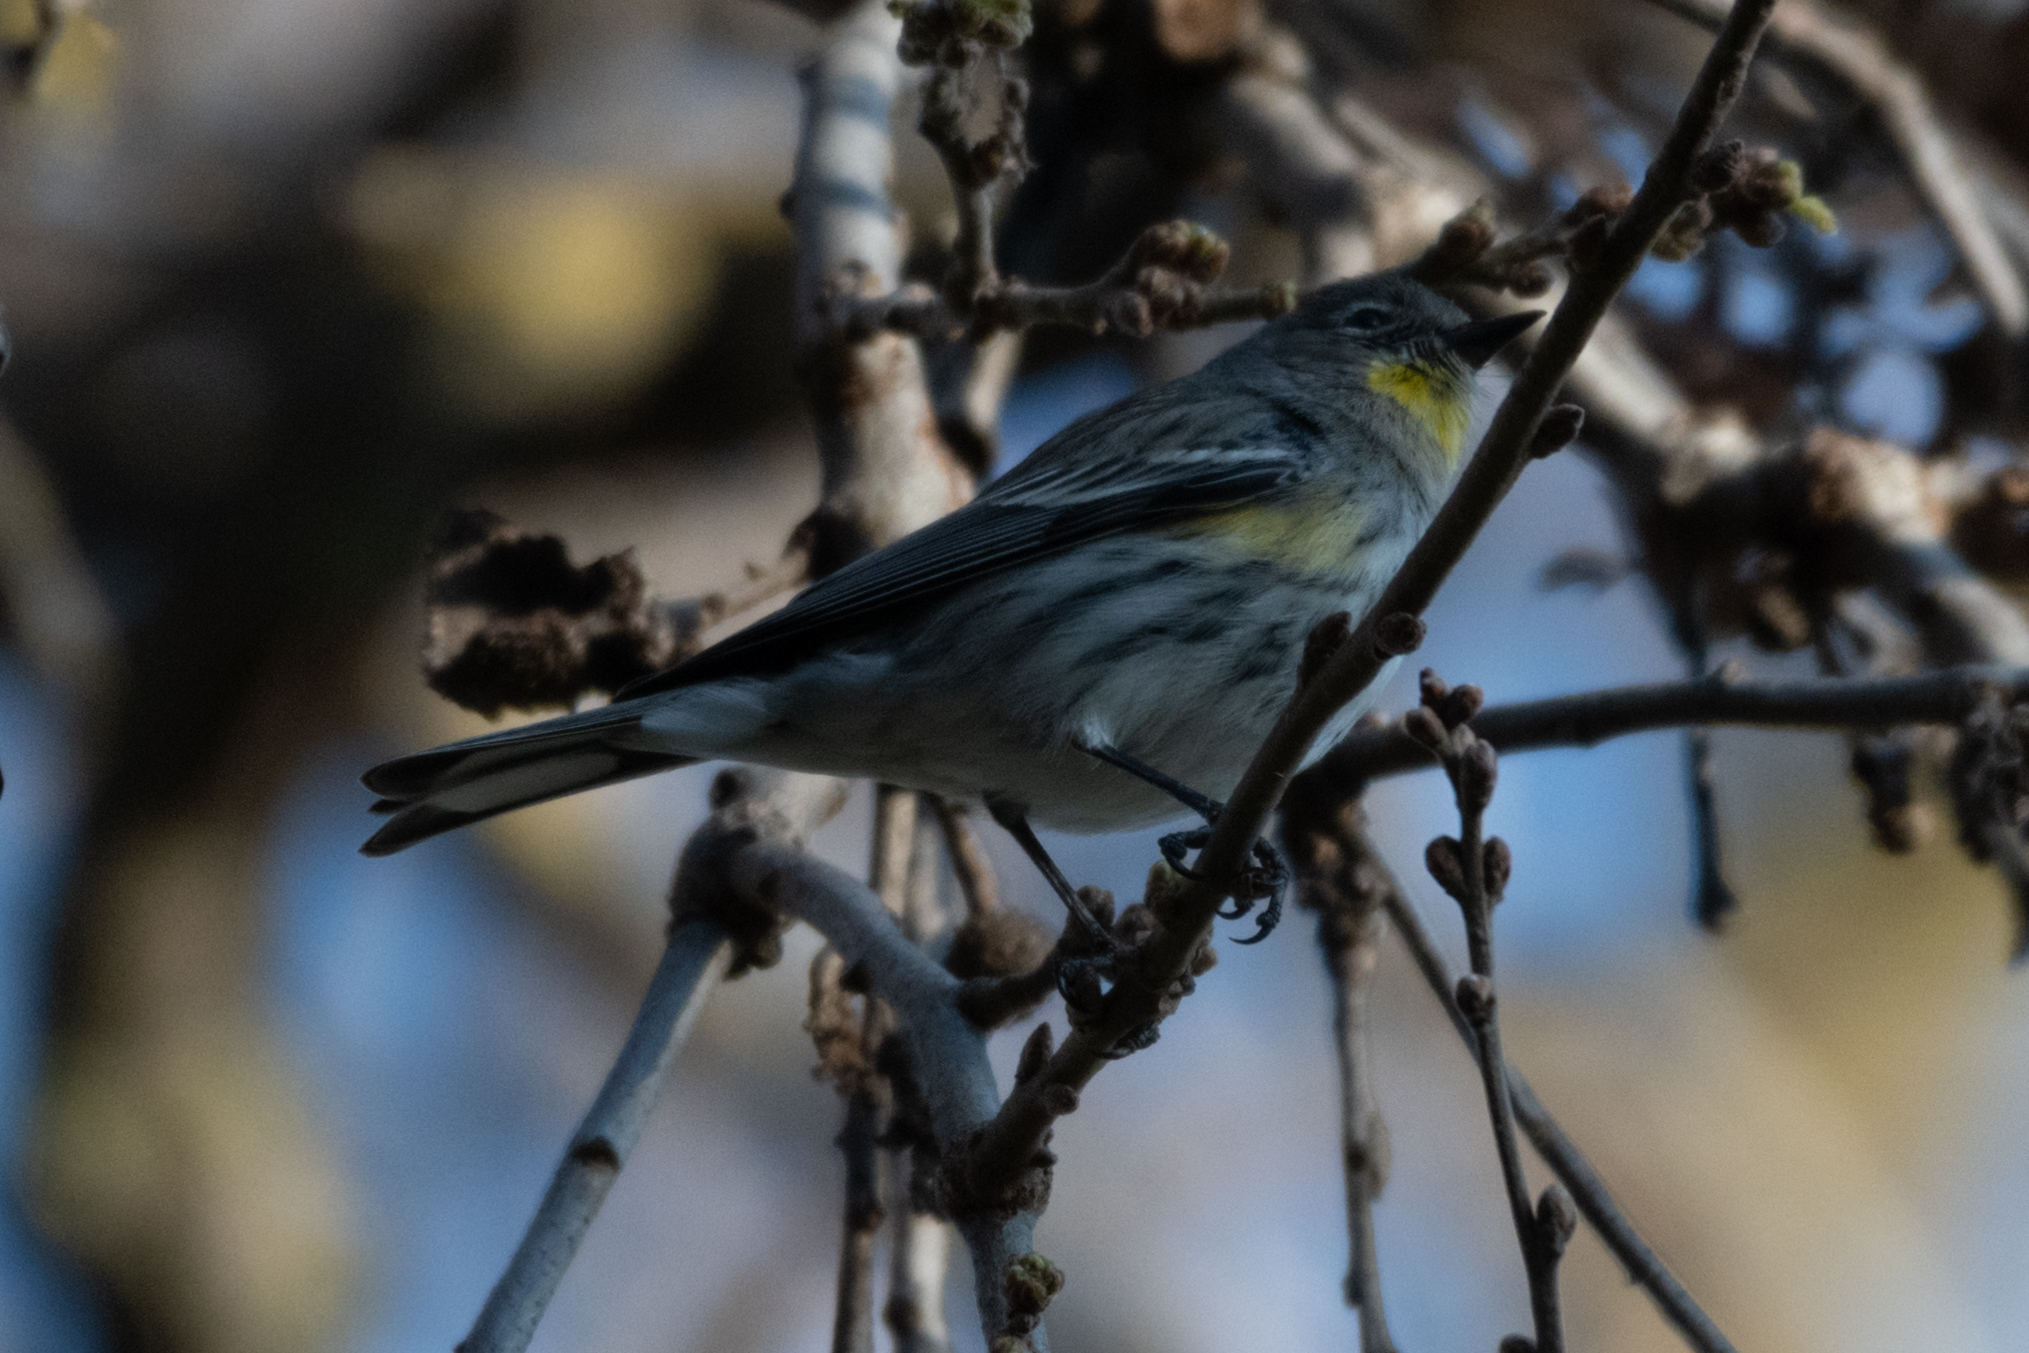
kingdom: Animalia
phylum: Chordata
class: Aves
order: Passeriformes
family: Parulidae
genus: Setophaga
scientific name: Setophaga coronata
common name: Myrtle warbler
